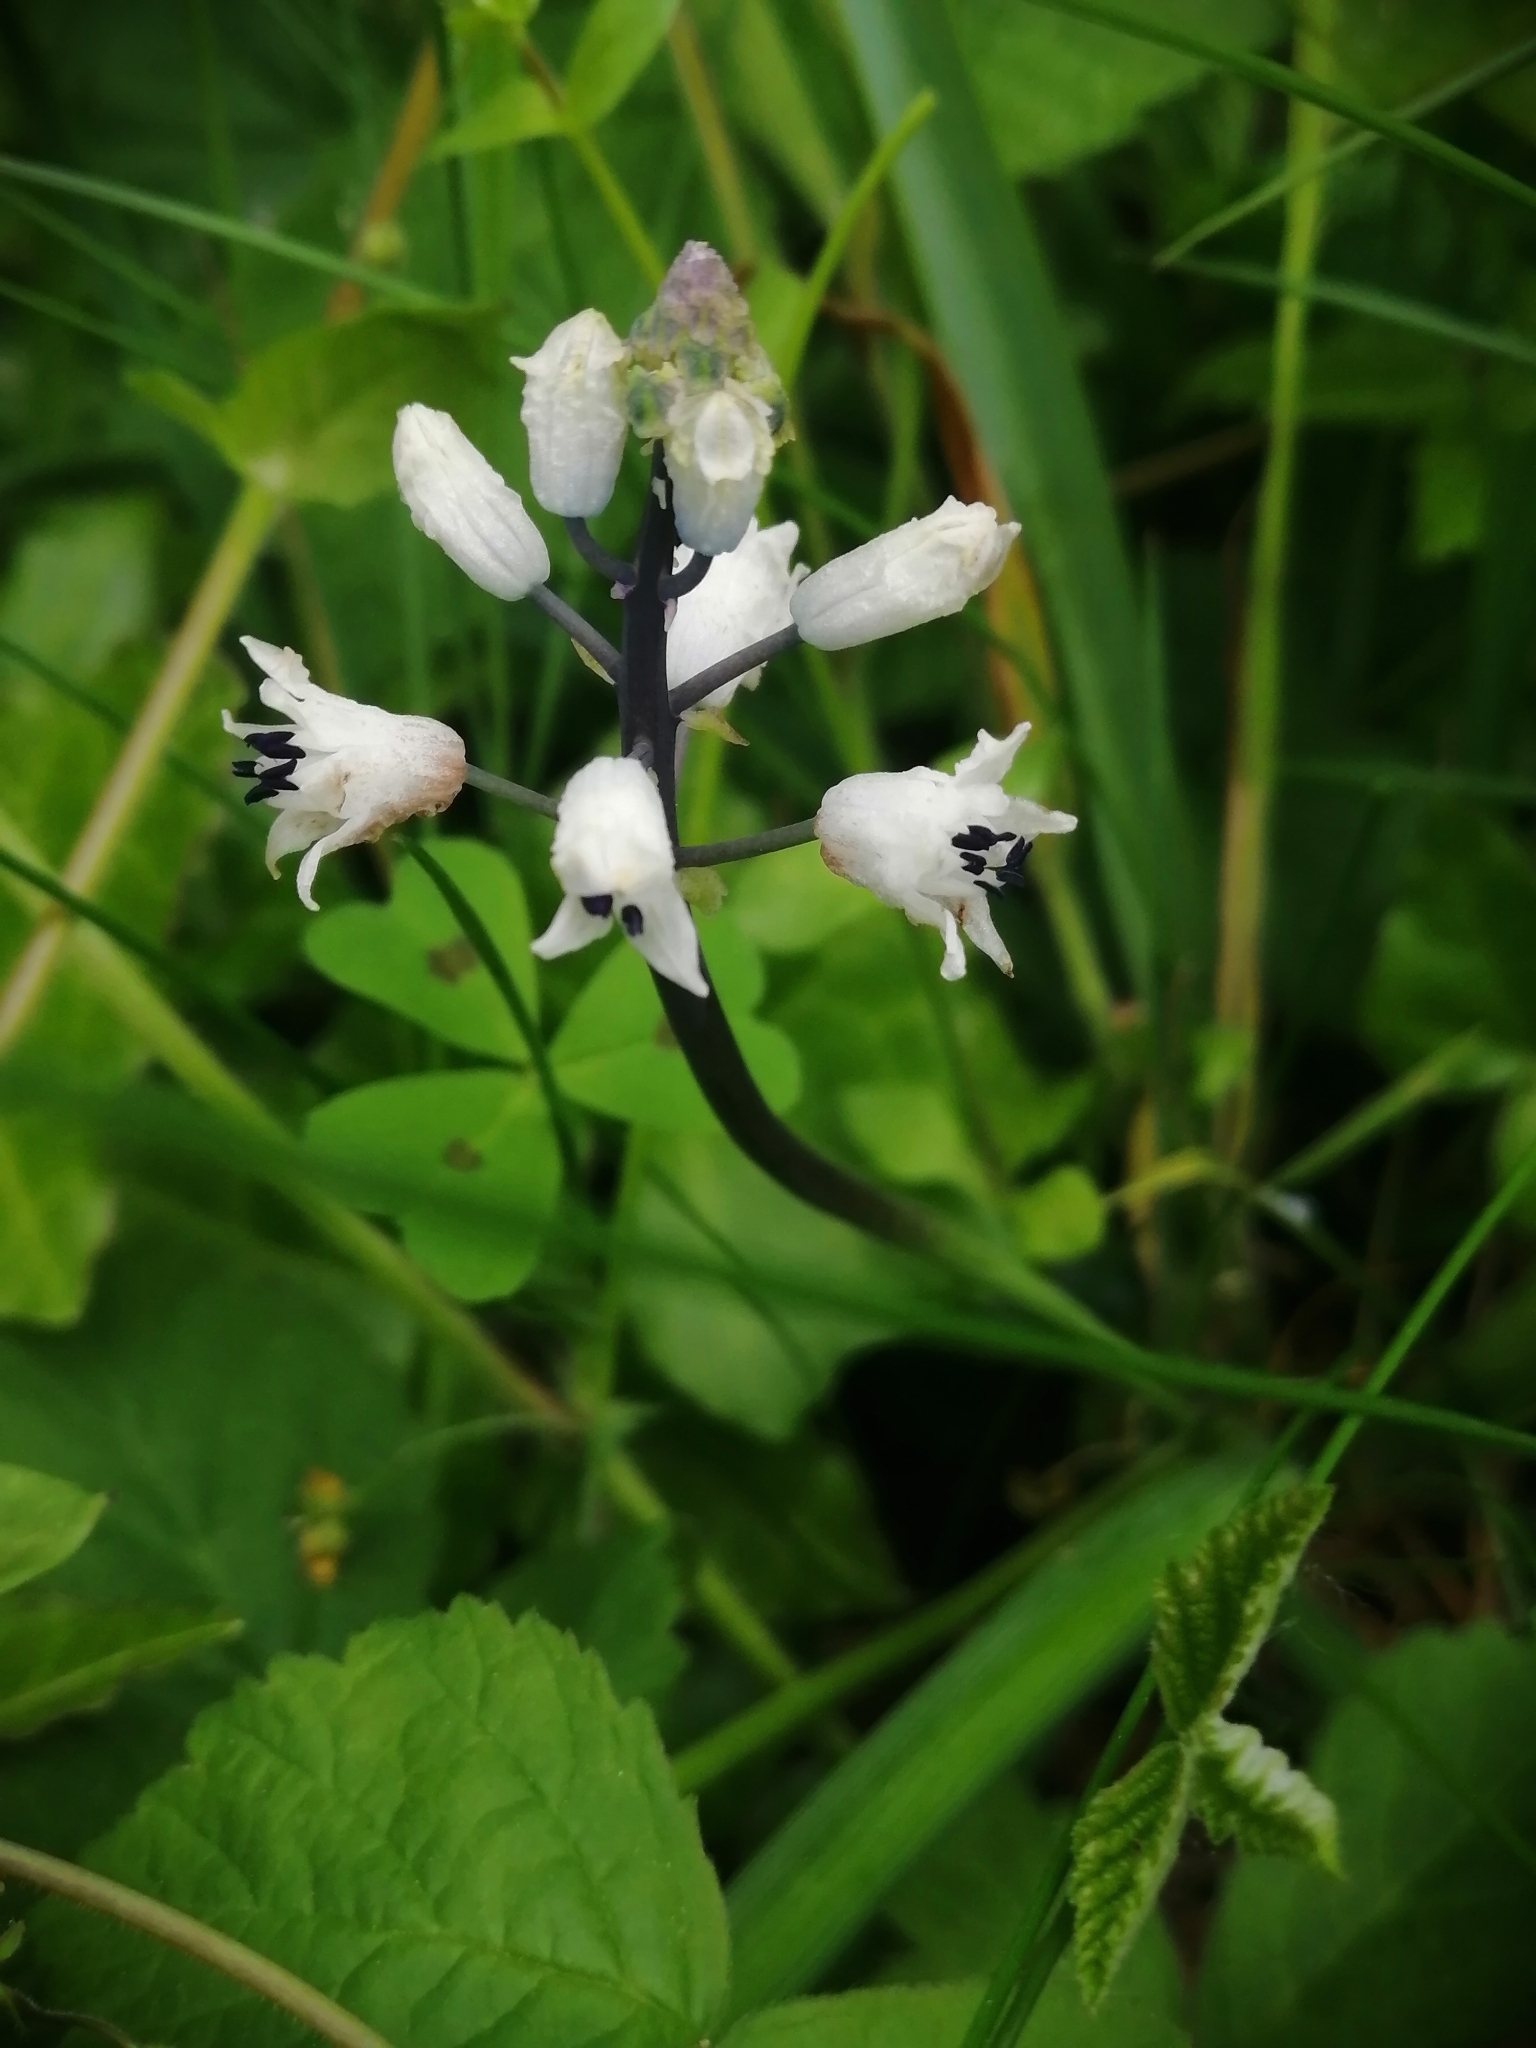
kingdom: Plantae
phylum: Tracheophyta
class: Liliopsida
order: Asparagales
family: Asparagaceae
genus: Bellevalia
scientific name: Bellevalia romana
